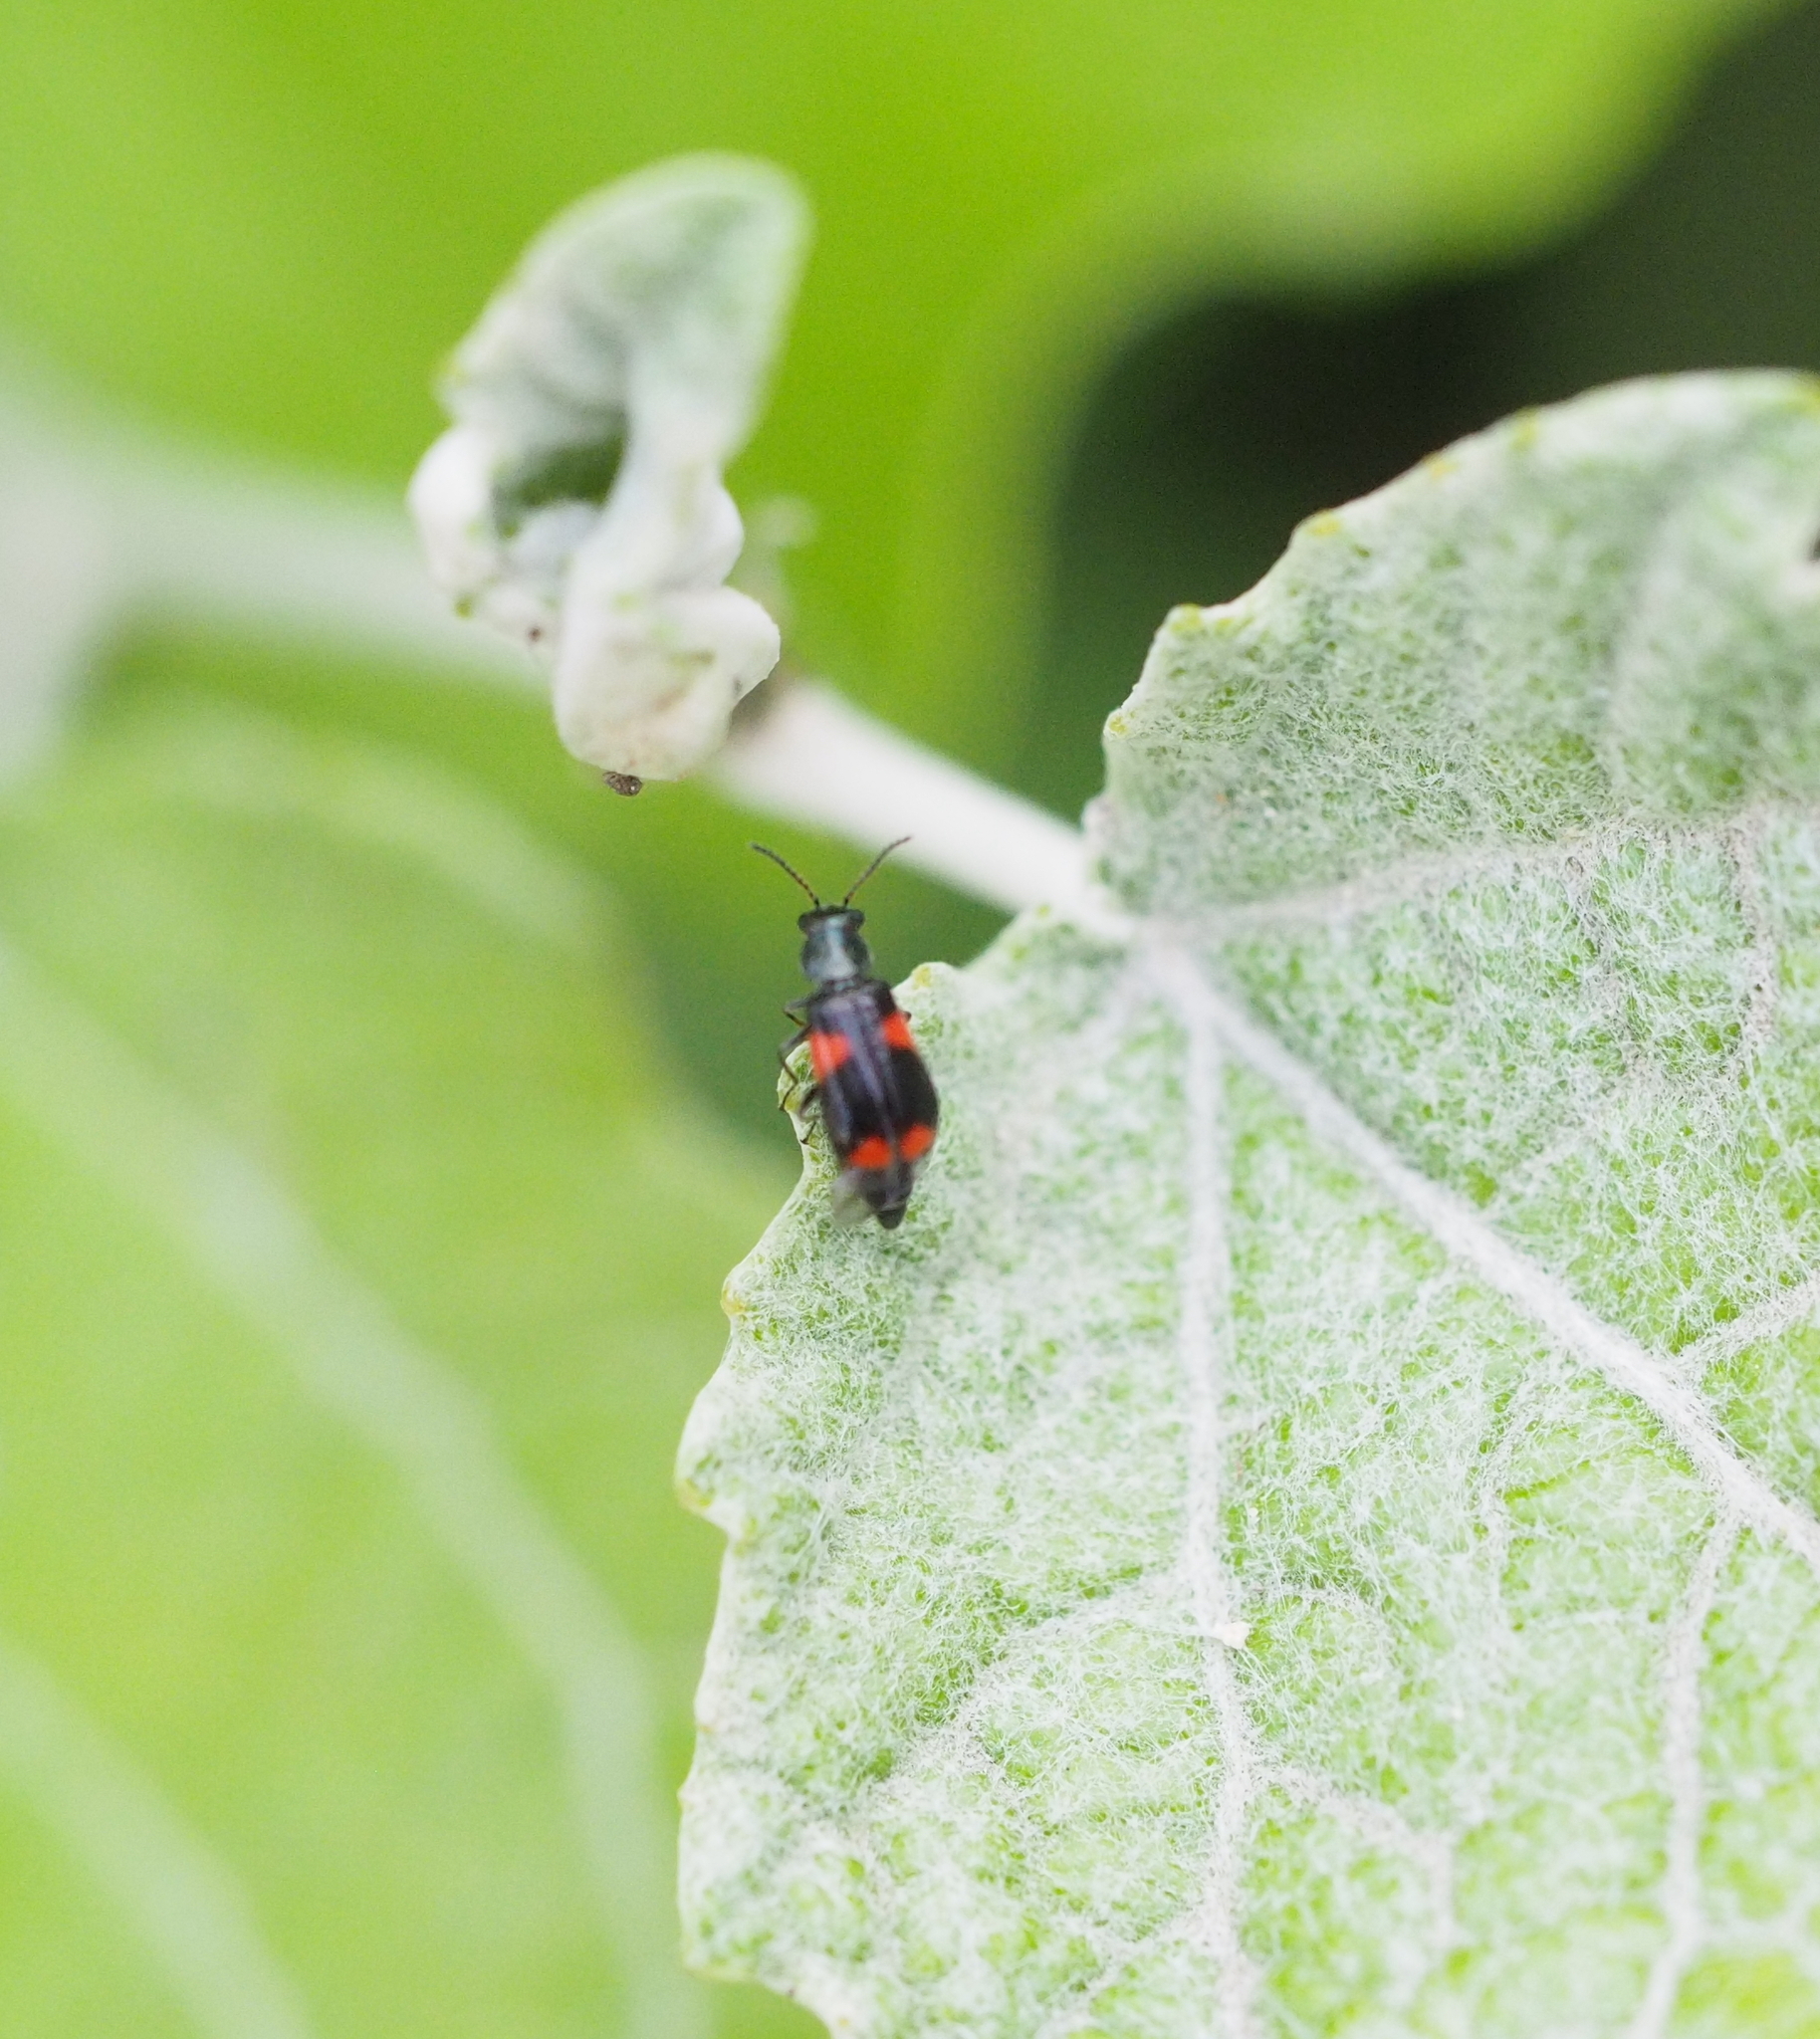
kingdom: Animalia
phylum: Arthropoda
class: Insecta
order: Coleoptera
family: Melyridae
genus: Anthocomus
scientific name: Anthocomus fasciatus
